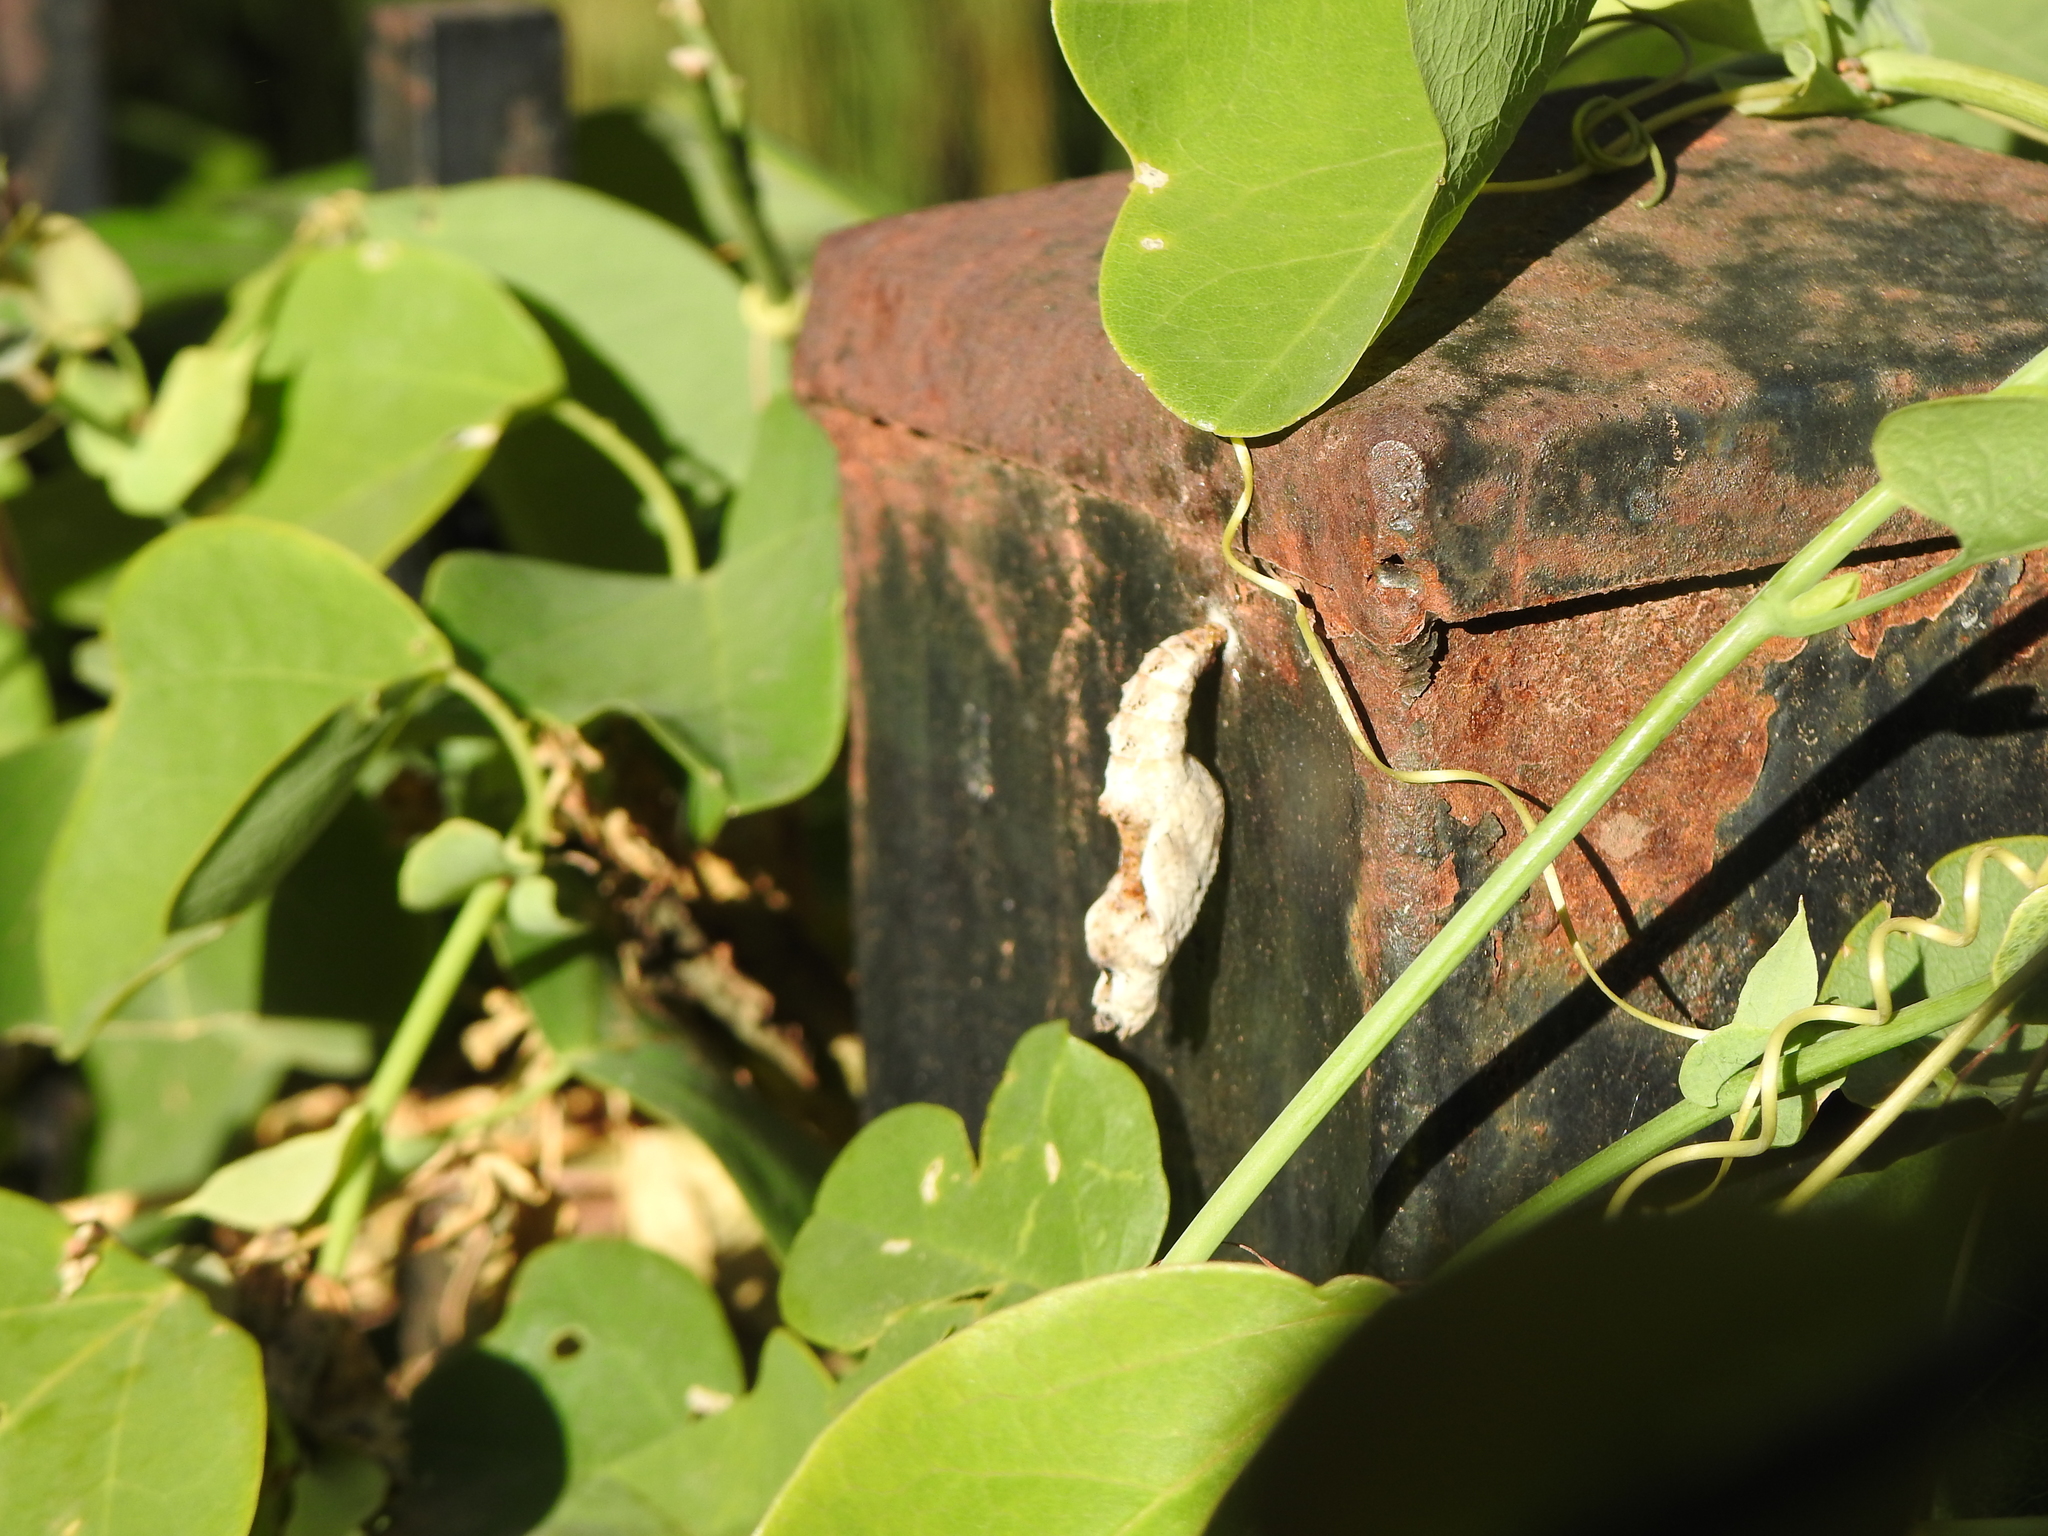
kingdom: Animalia
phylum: Arthropoda
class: Insecta
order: Lepidoptera
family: Nymphalidae
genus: Dione
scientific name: Dione vanillae
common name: Gulf fritillary
